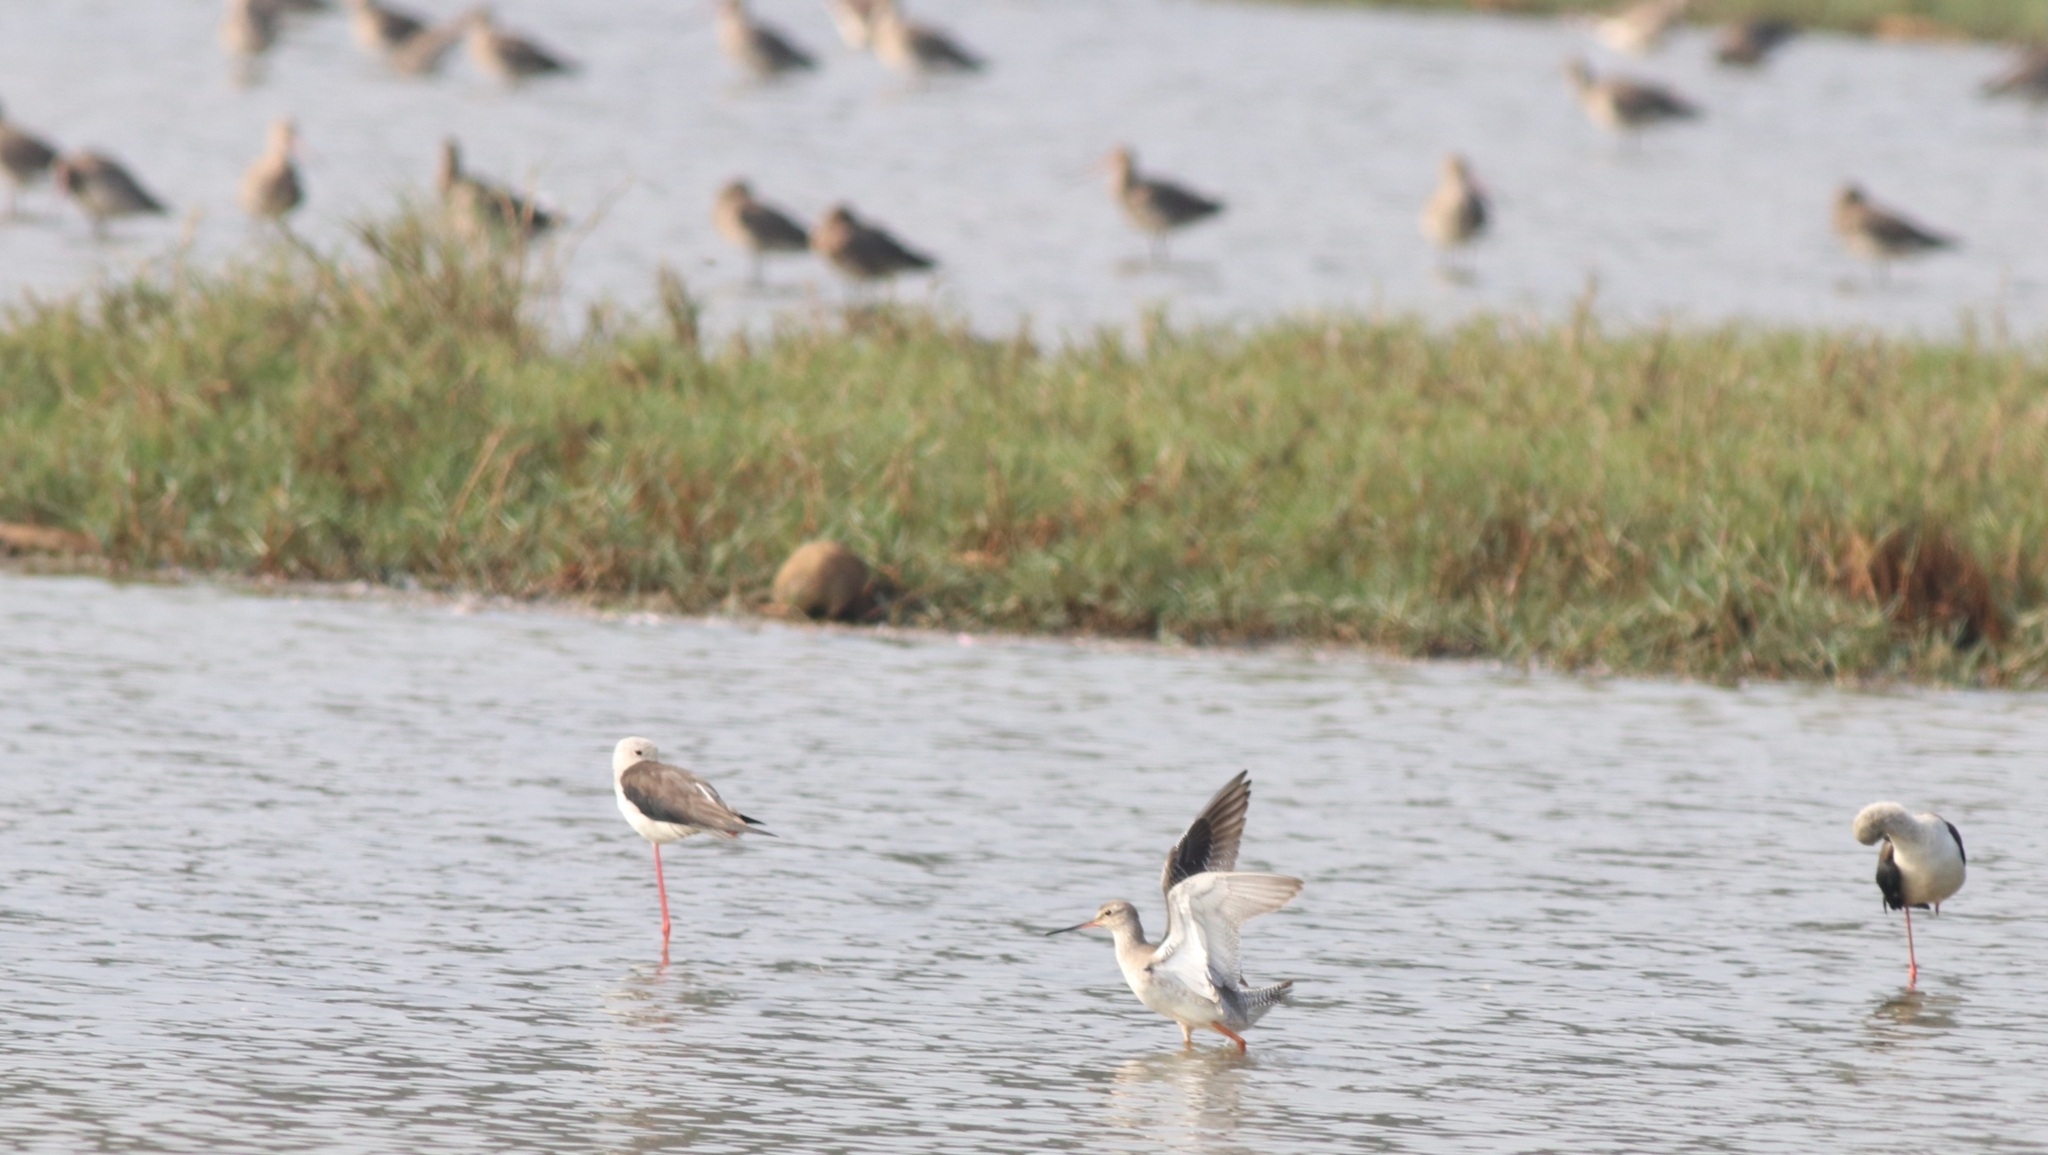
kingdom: Animalia
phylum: Chordata
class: Aves
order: Charadriiformes
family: Recurvirostridae
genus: Himantopus
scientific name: Himantopus himantopus
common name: Black-winged stilt
